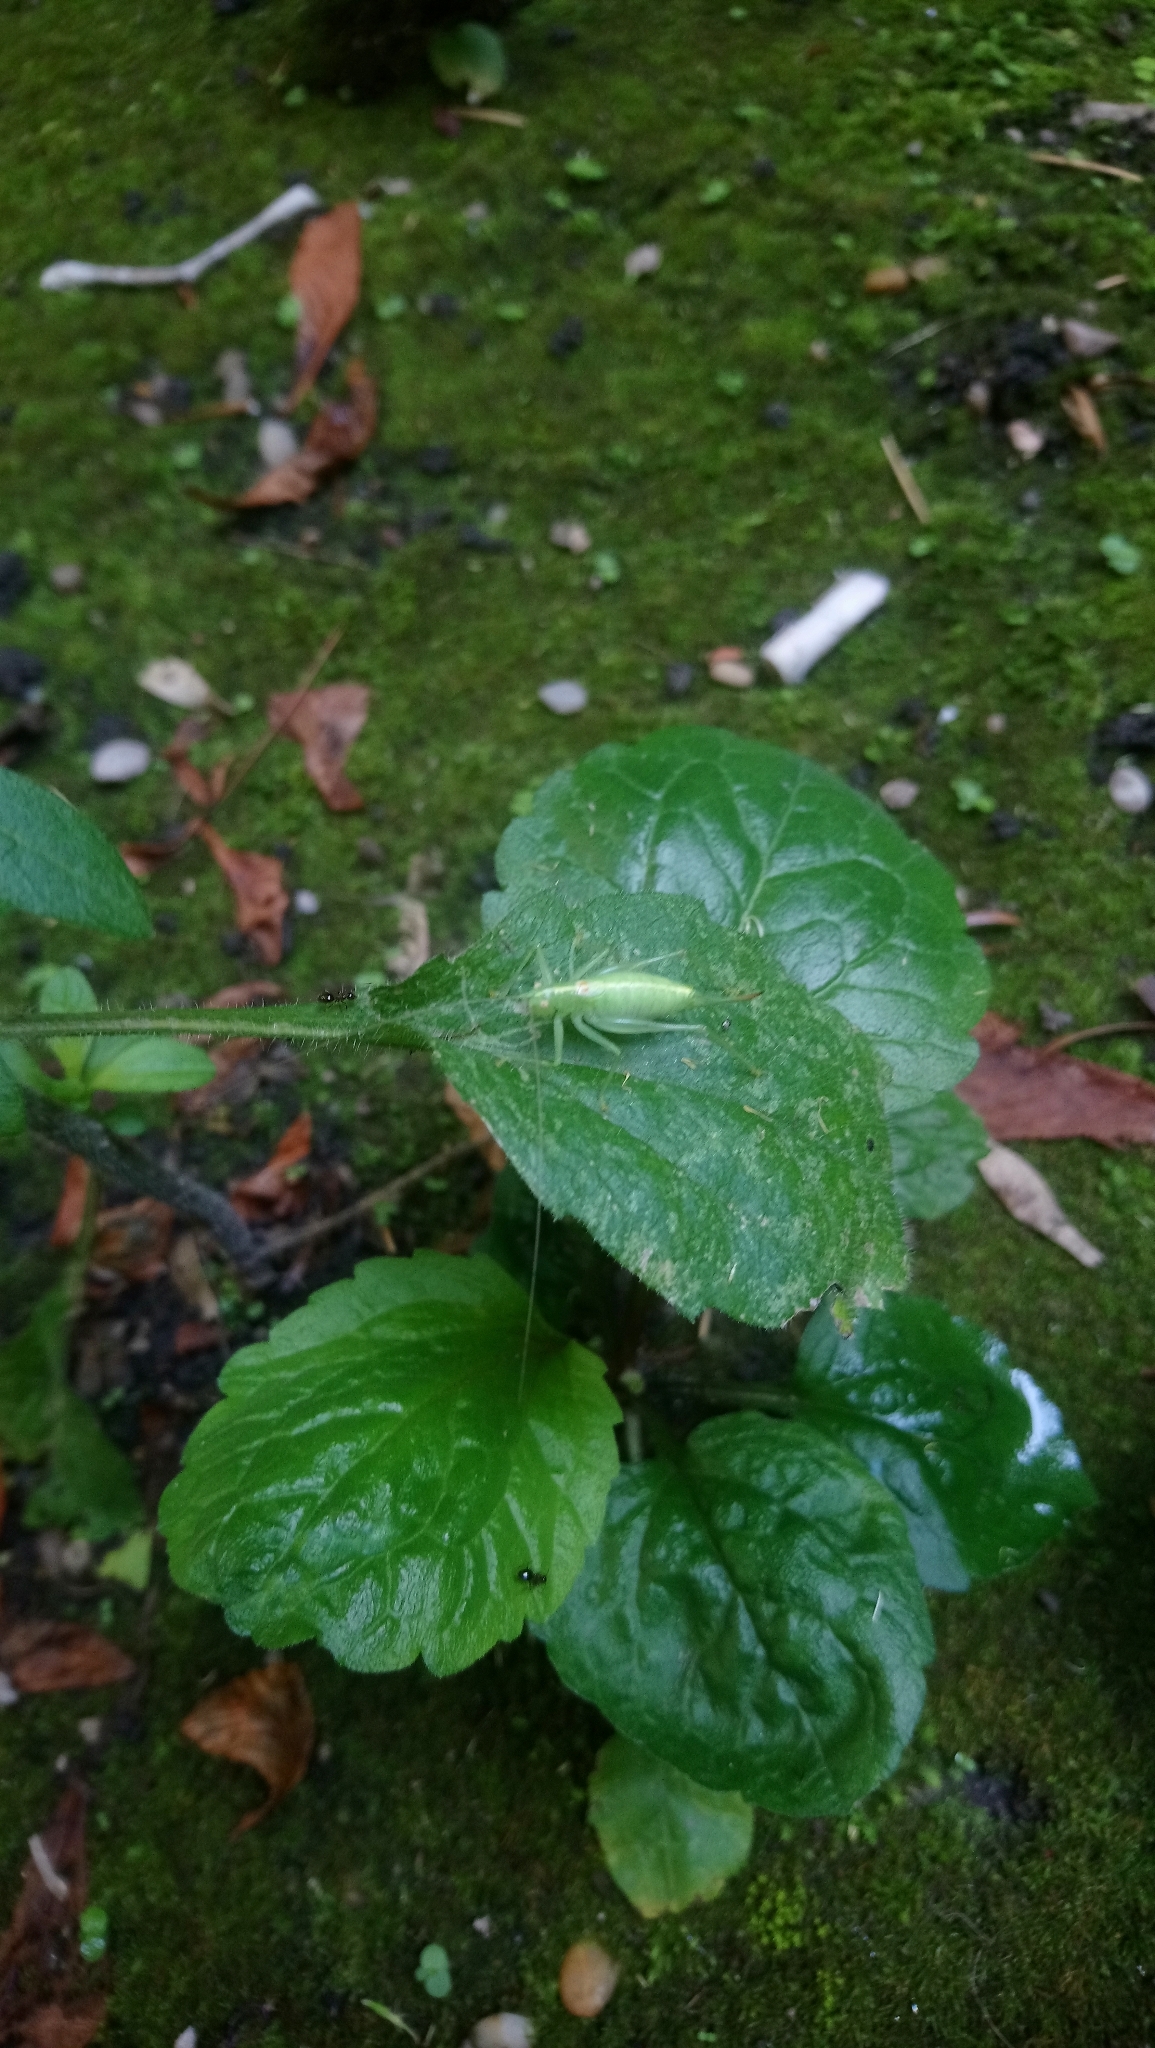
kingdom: Animalia
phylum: Arthropoda
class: Insecta
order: Orthoptera
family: Tettigoniidae
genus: Meconema
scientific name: Meconema meridionale
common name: Southern oak bush-cricket
